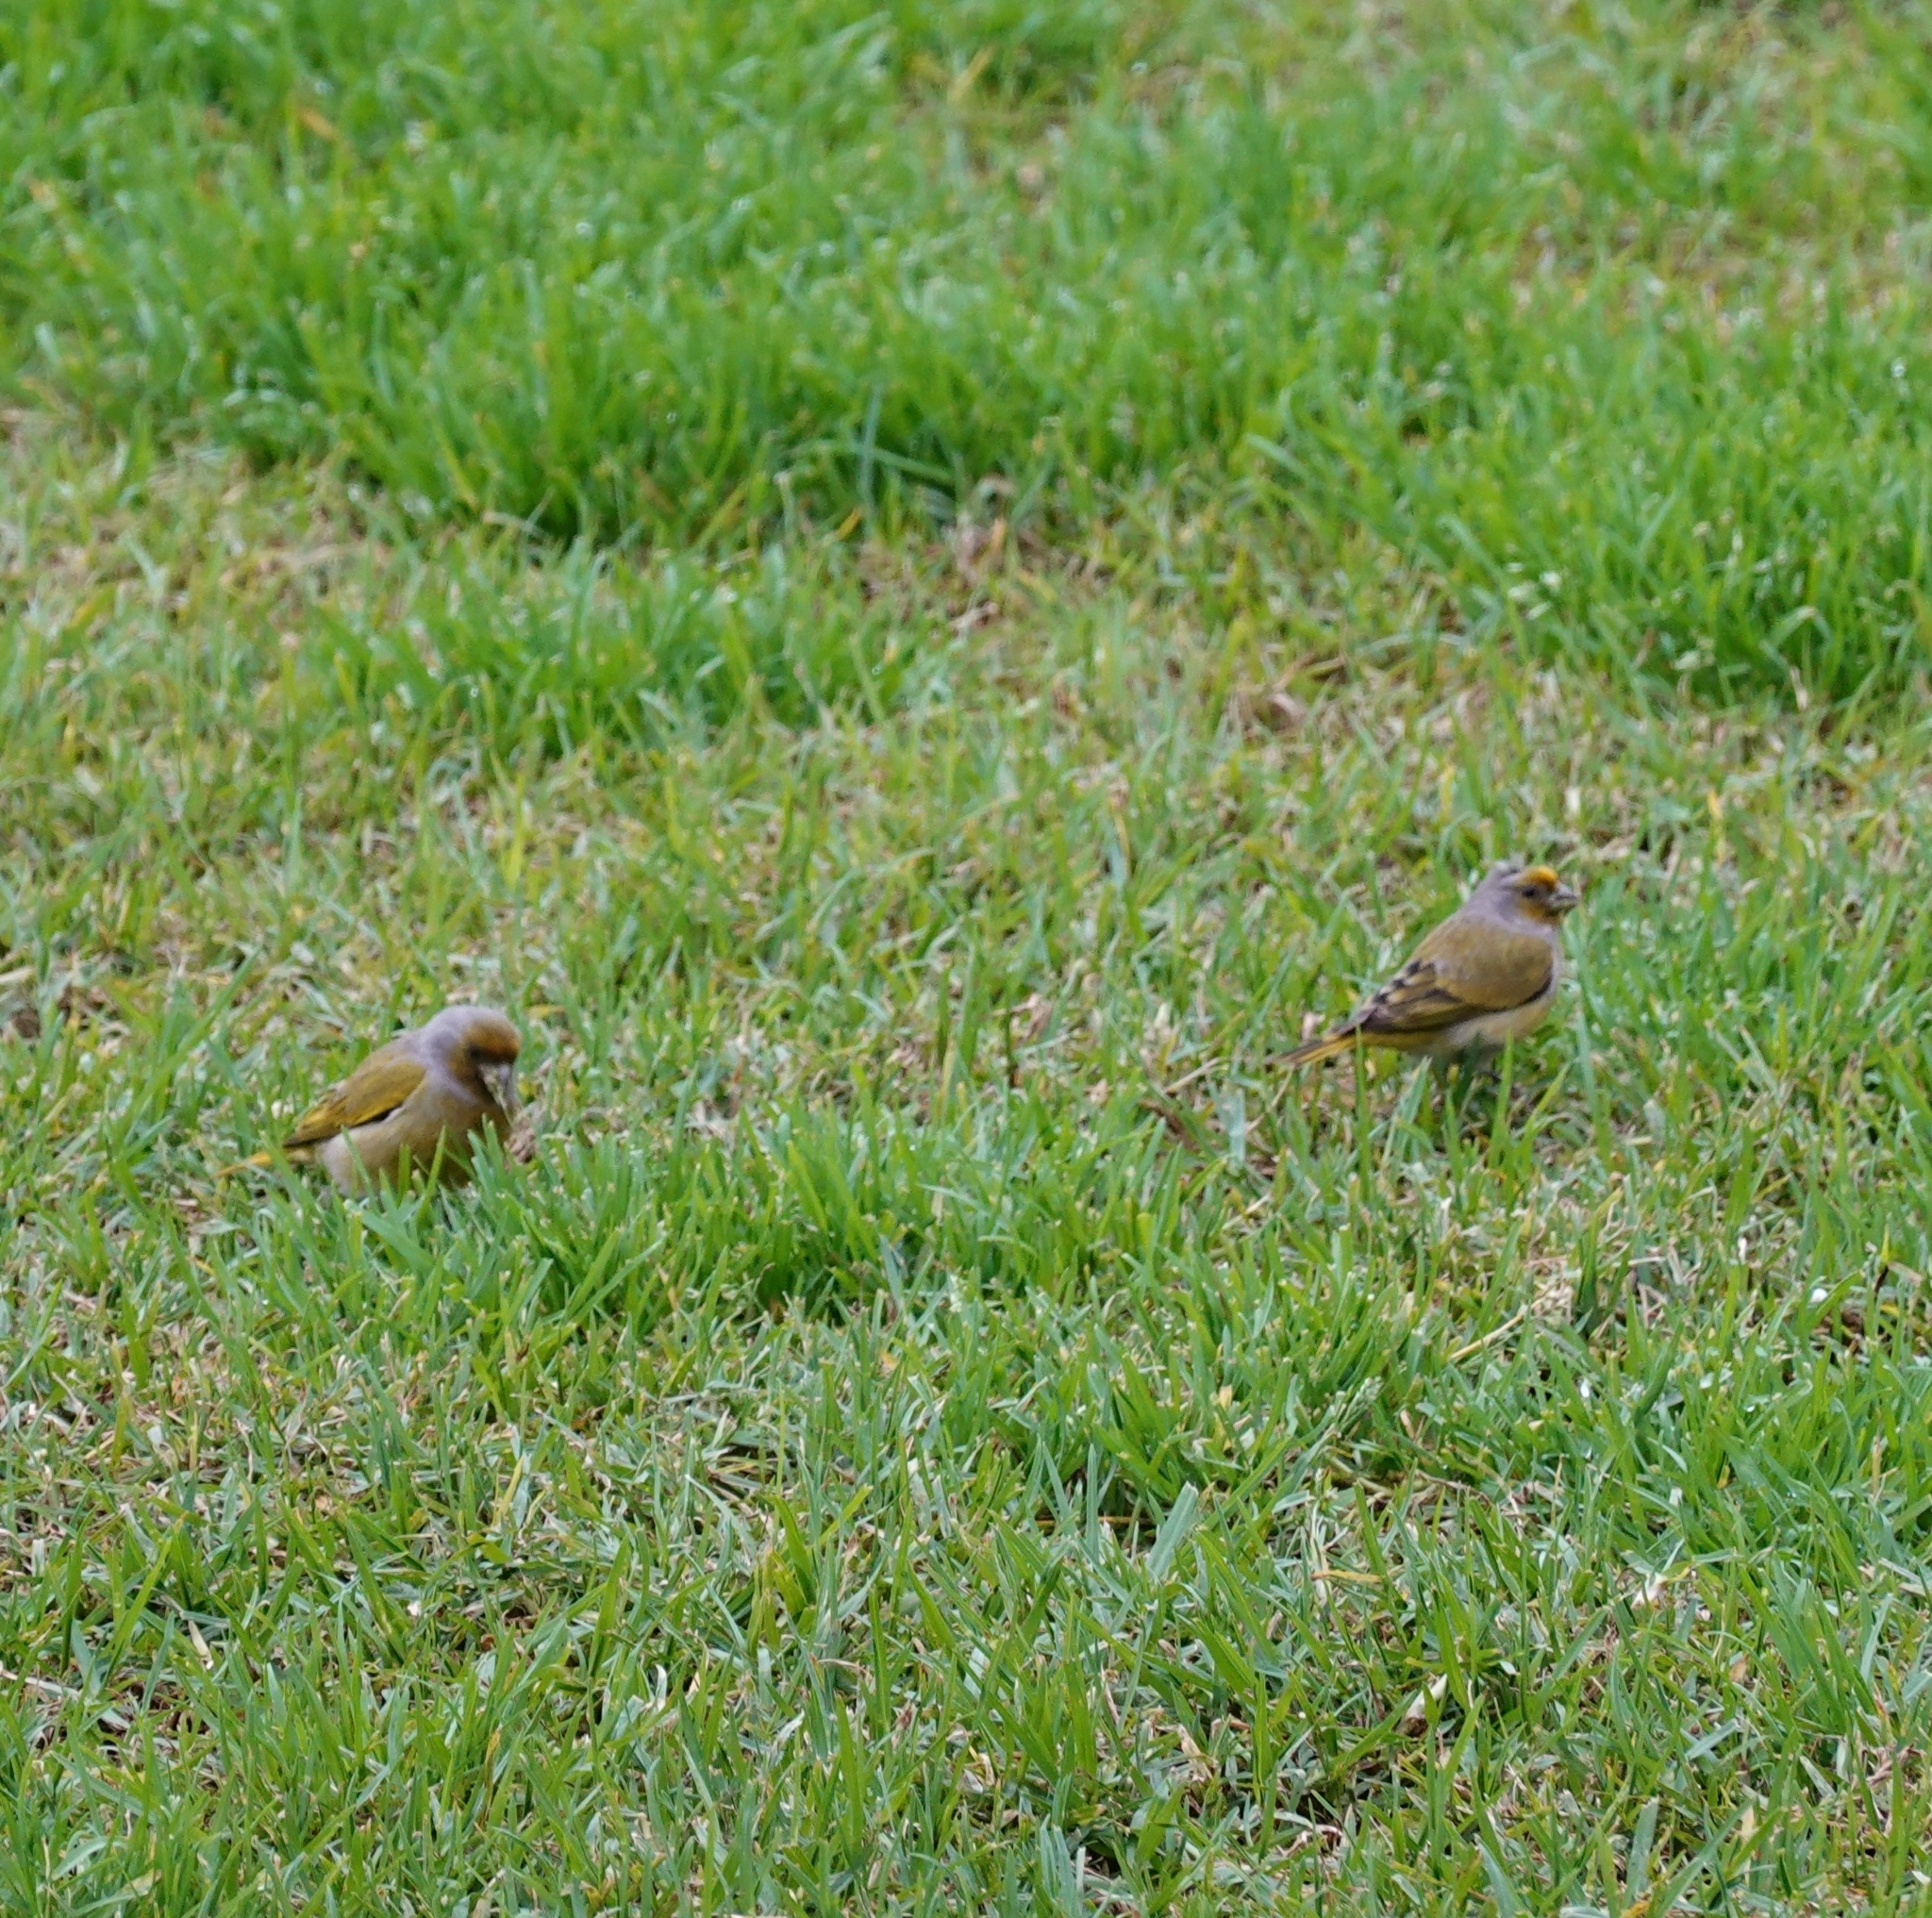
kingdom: Animalia
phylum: Chordata
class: Aves
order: Passeriformes
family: Fringillidae
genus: Serinus
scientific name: Serinus canicollis
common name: Cape canary
